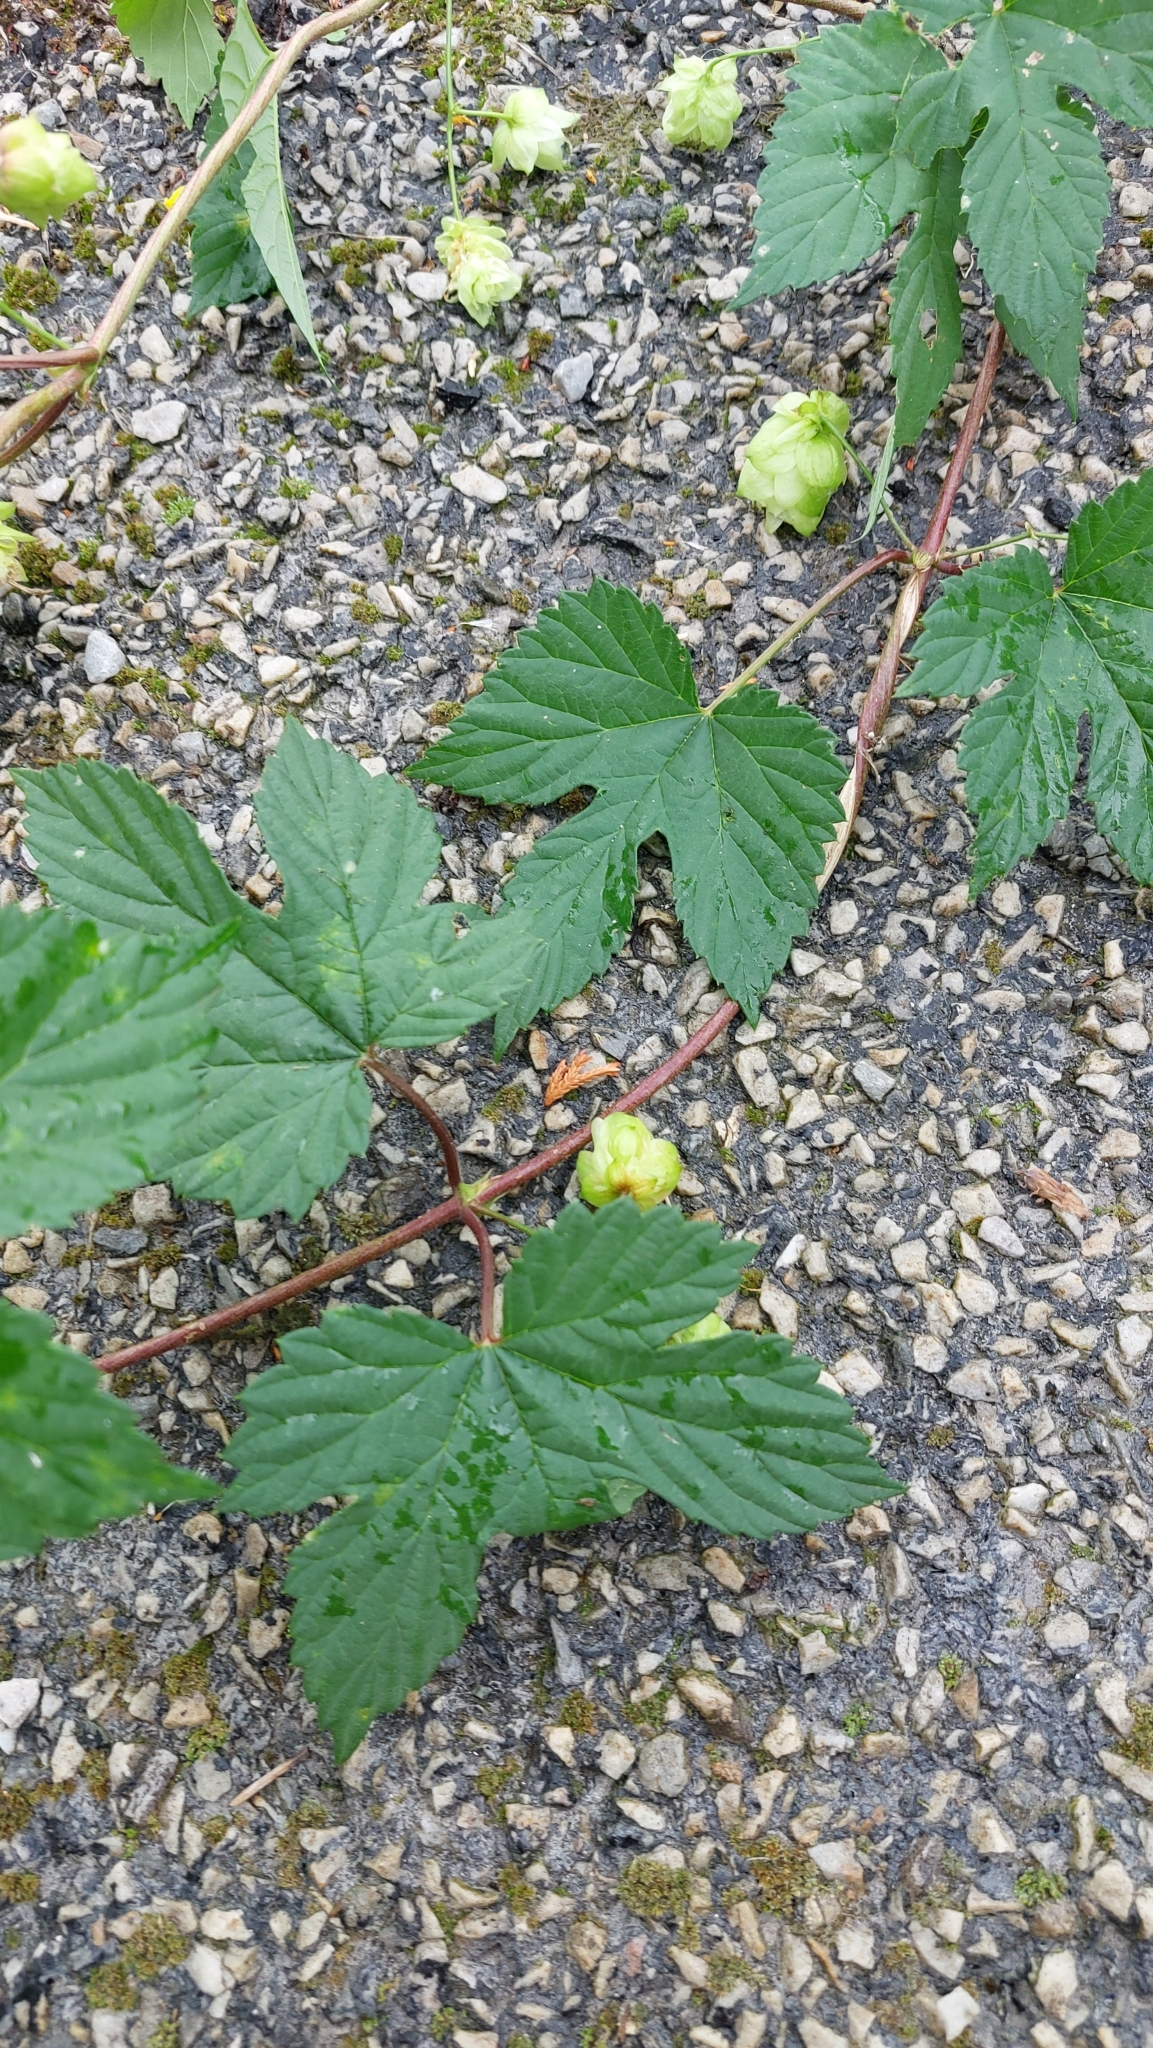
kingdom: Plantae
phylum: Tracheophyta
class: Magnoliopsida
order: Rosales
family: Cannabaceae
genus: Humulus
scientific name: Humulus lupulus
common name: Hop
